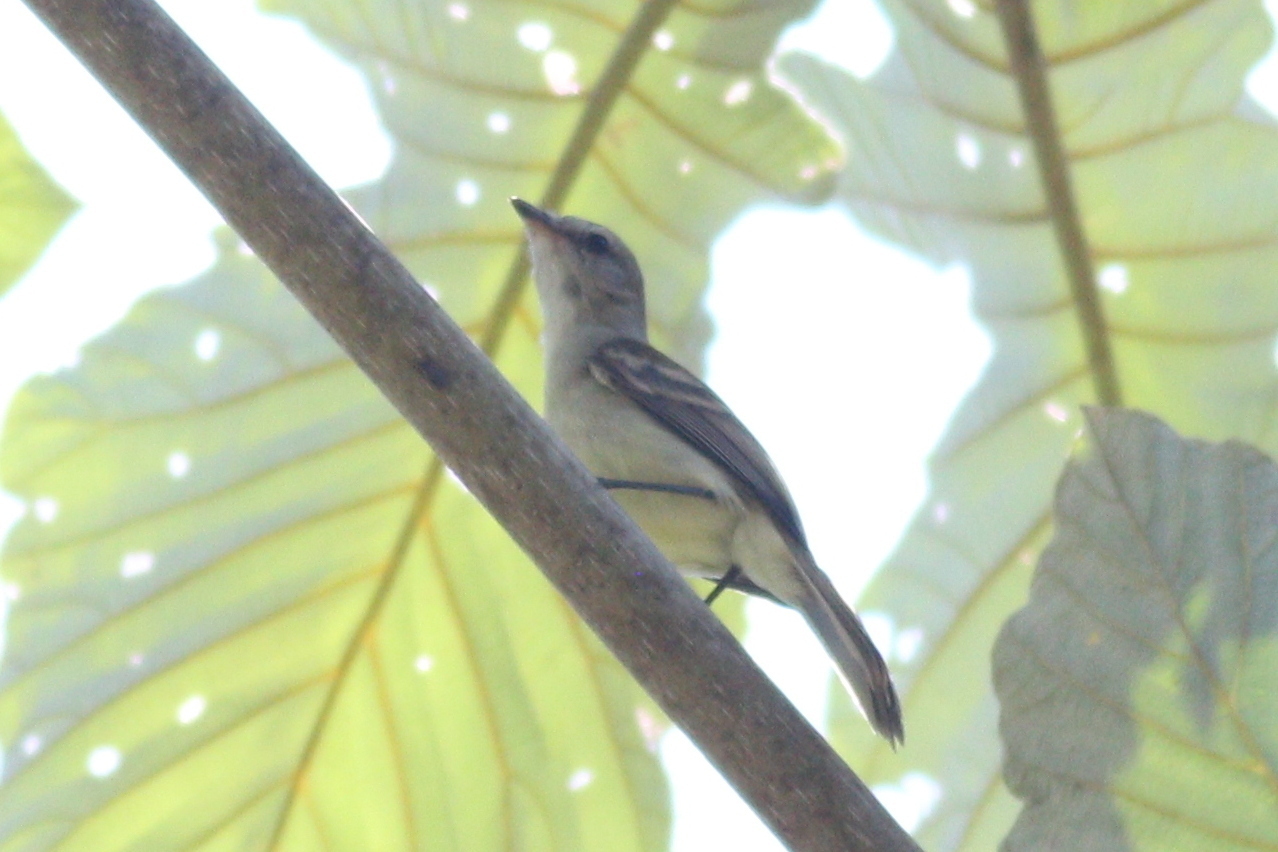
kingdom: Animalia
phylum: Chordata
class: Aves
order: Passeriformes
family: Tyrannidae
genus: Phaeomyias
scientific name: Phaeomyias murina
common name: Mouse-colored tyrannulet
